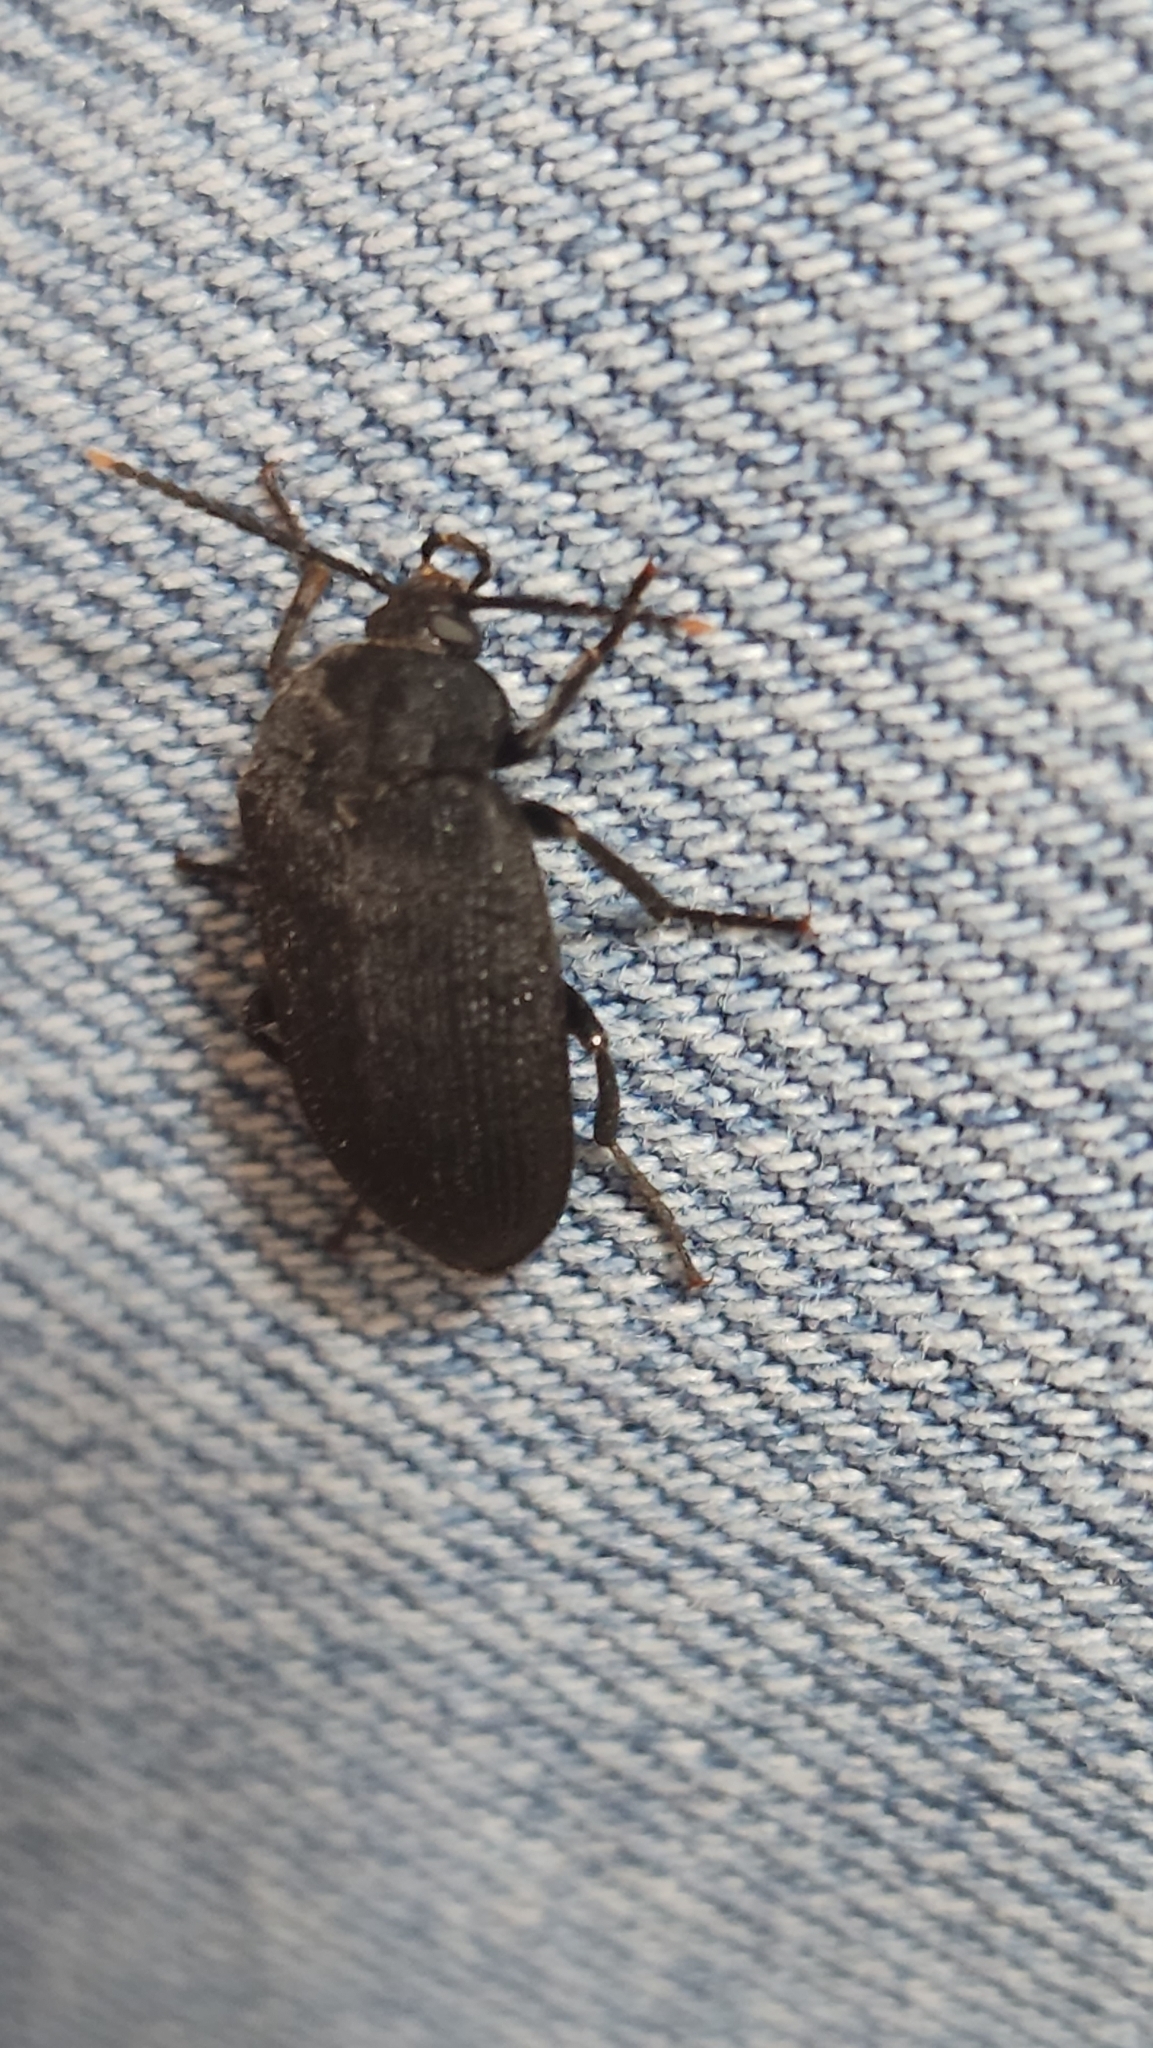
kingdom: Animalia
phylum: Arthropoda
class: Insecta
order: Coleoptera
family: Tetratomidae
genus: Penthe
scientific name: Penthe pimelia
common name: Velvety bark beetle
